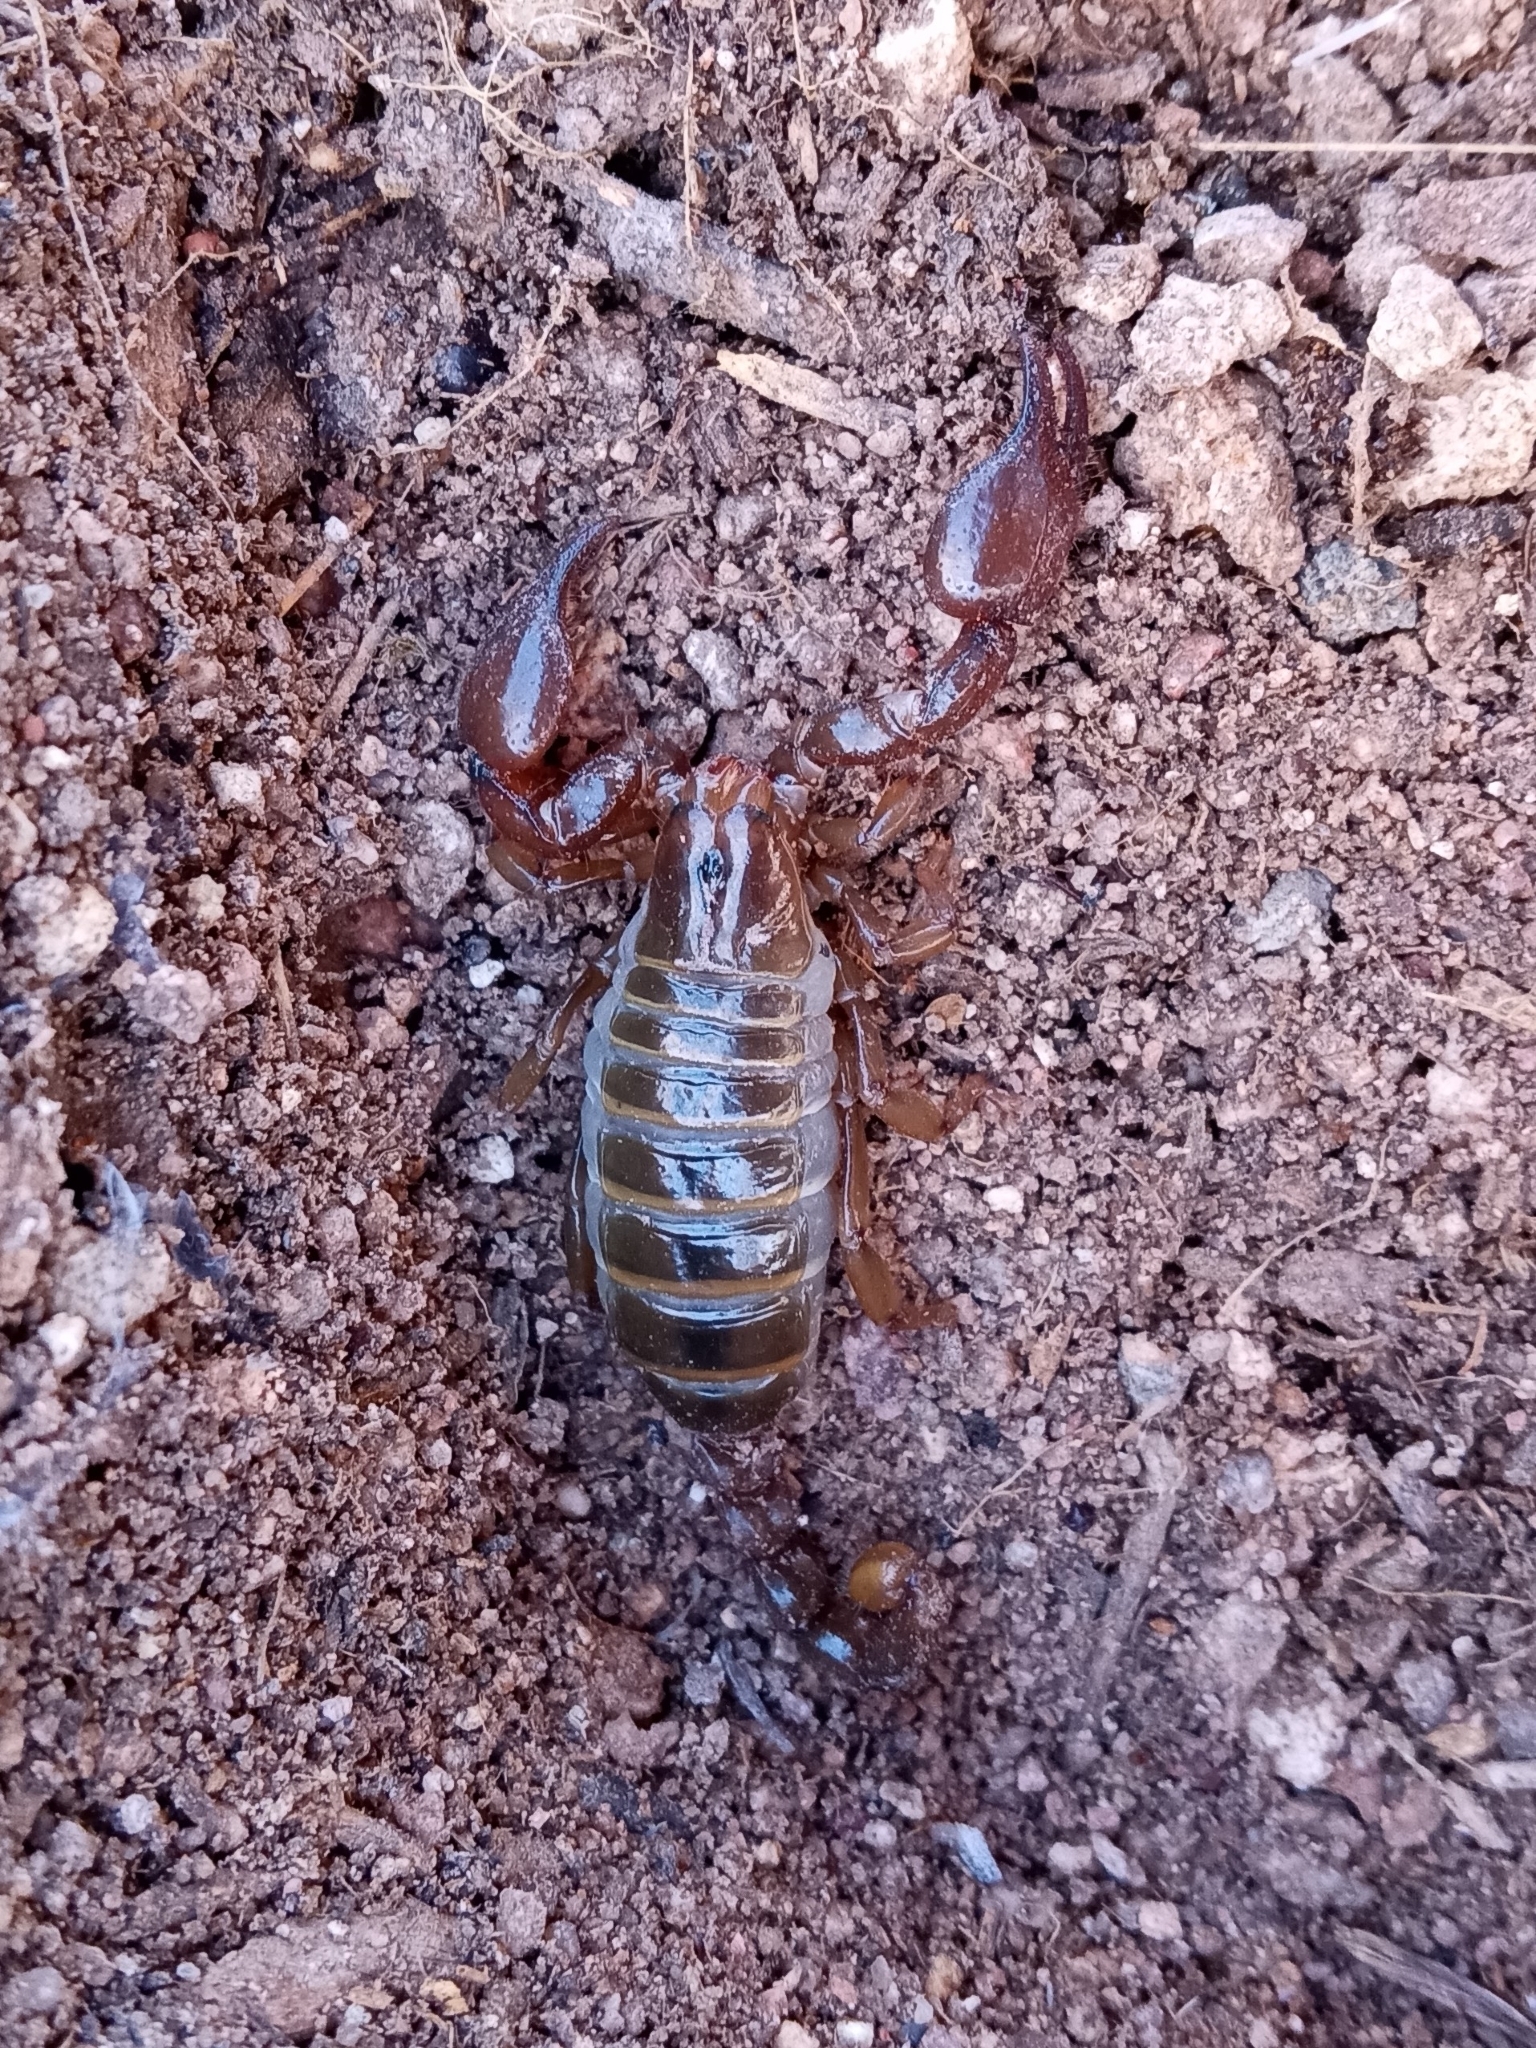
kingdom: Animalia
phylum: Arthropoda
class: Arachnida
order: Scorpiones
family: Diplocentridae
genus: Diplocentrus
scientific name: Diplocentrus spitzeri
